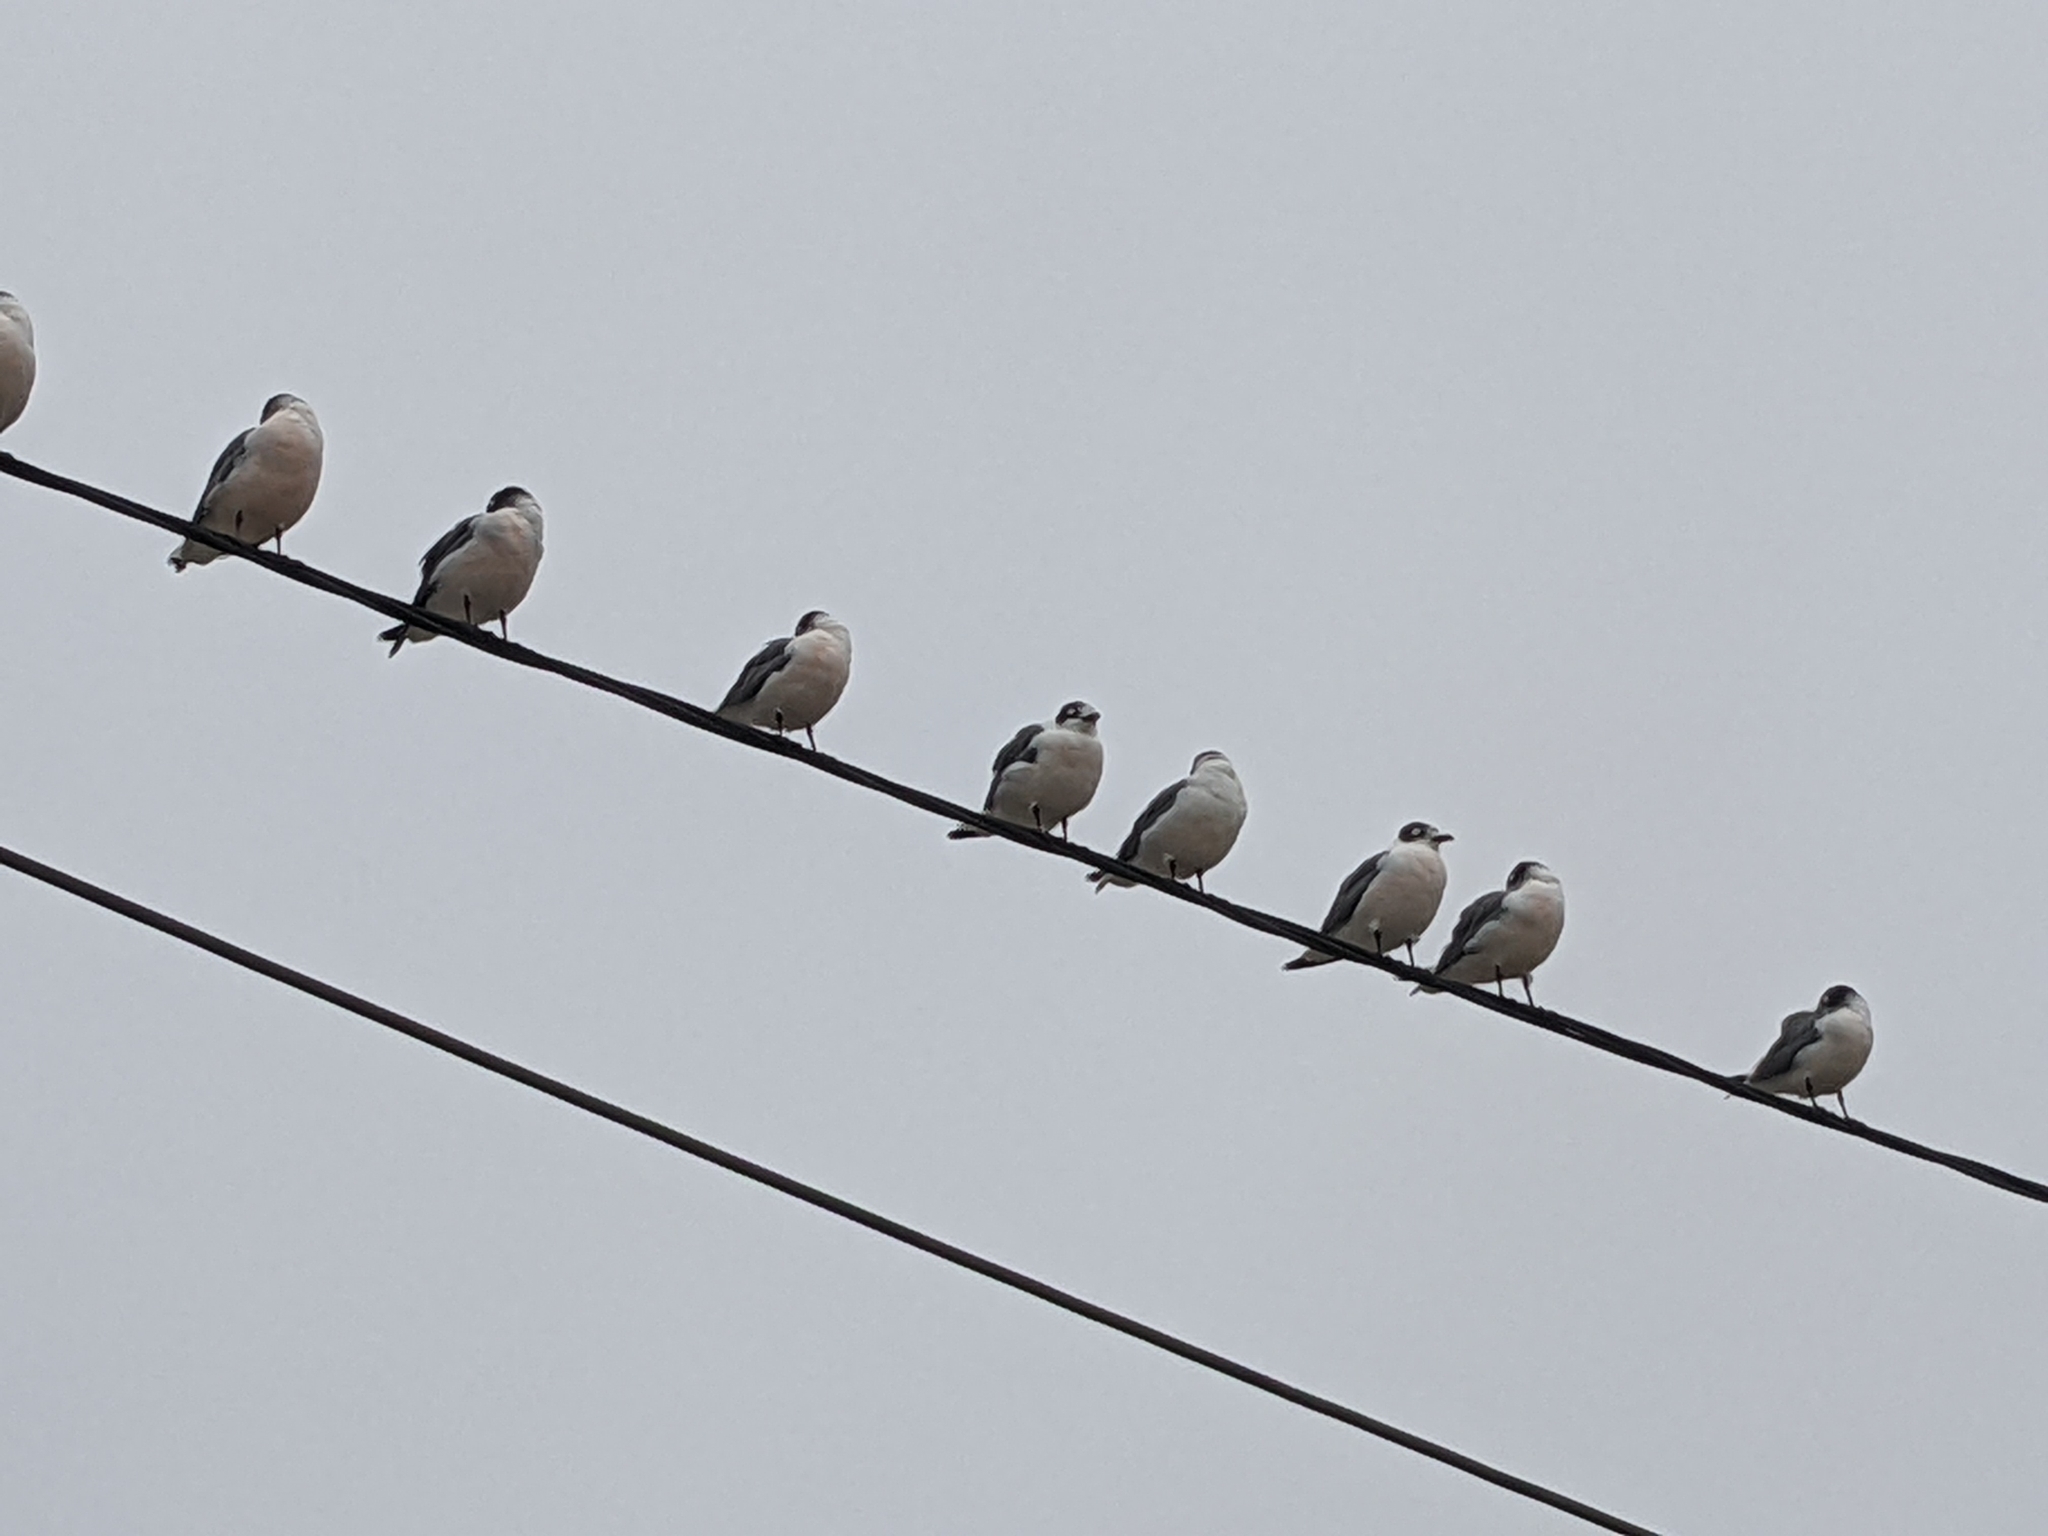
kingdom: Animalia
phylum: Chordata
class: Aves
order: Charadriiformes
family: Laridae
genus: Leucophaeus
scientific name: Leucophaeus pipixcan
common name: Franklin's gull
